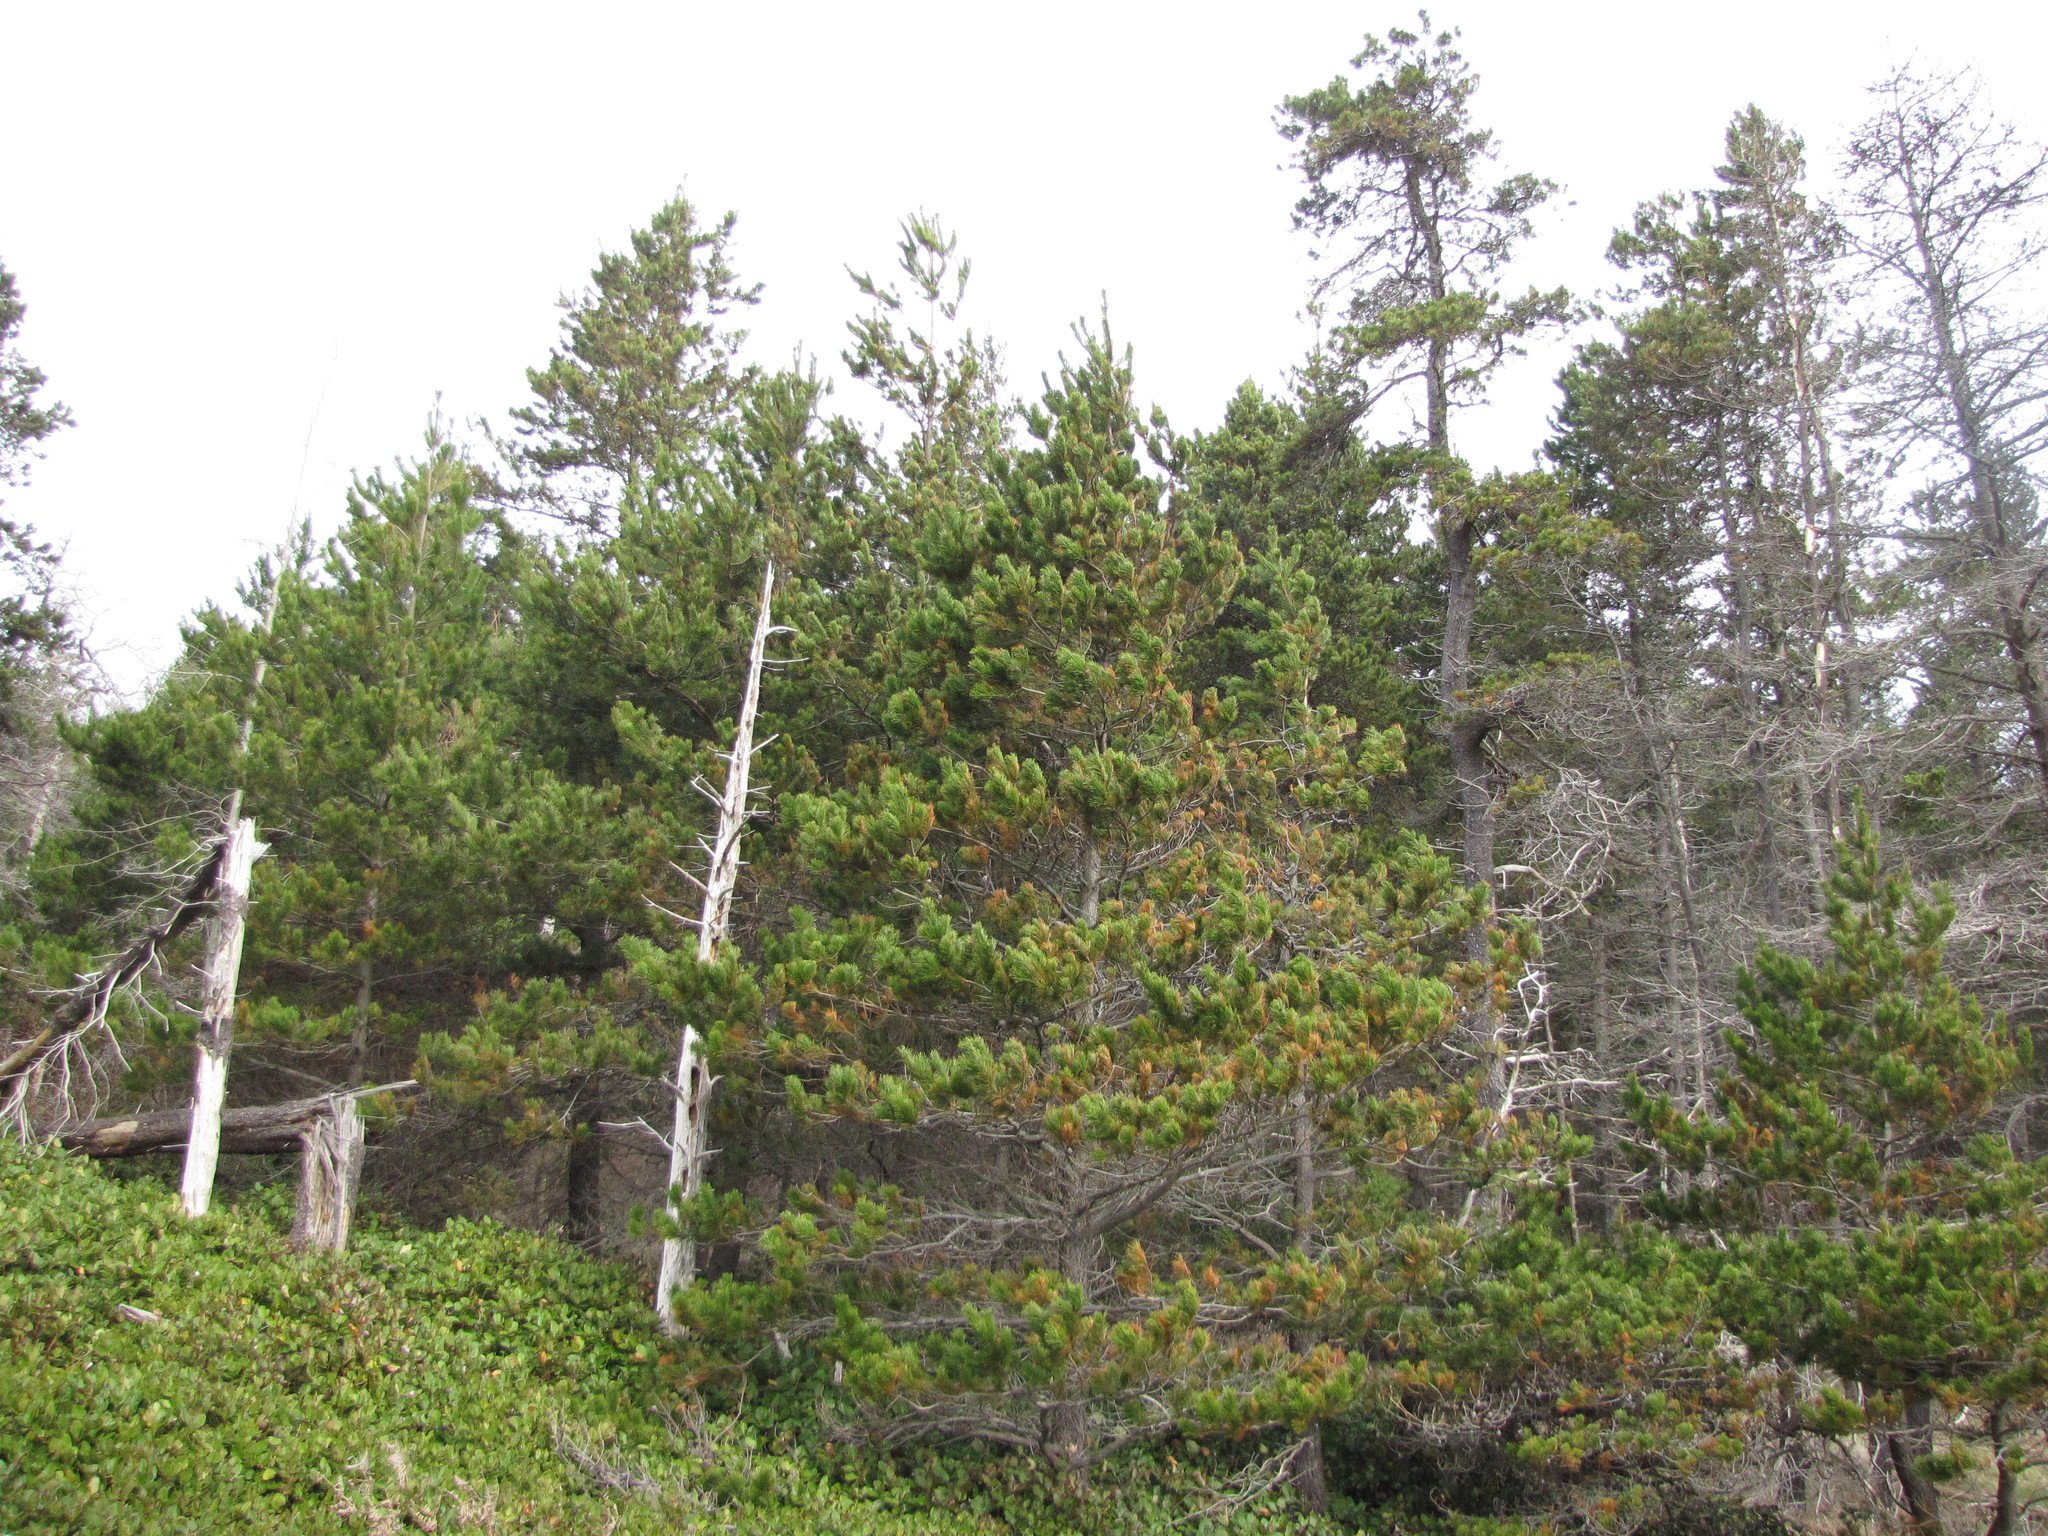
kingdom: Plantae
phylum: Tracheophyta
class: Pinopsida
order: Pinales
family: Pinaceae
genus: Pinus
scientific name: Pinus contorta
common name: Lodgepole pine
